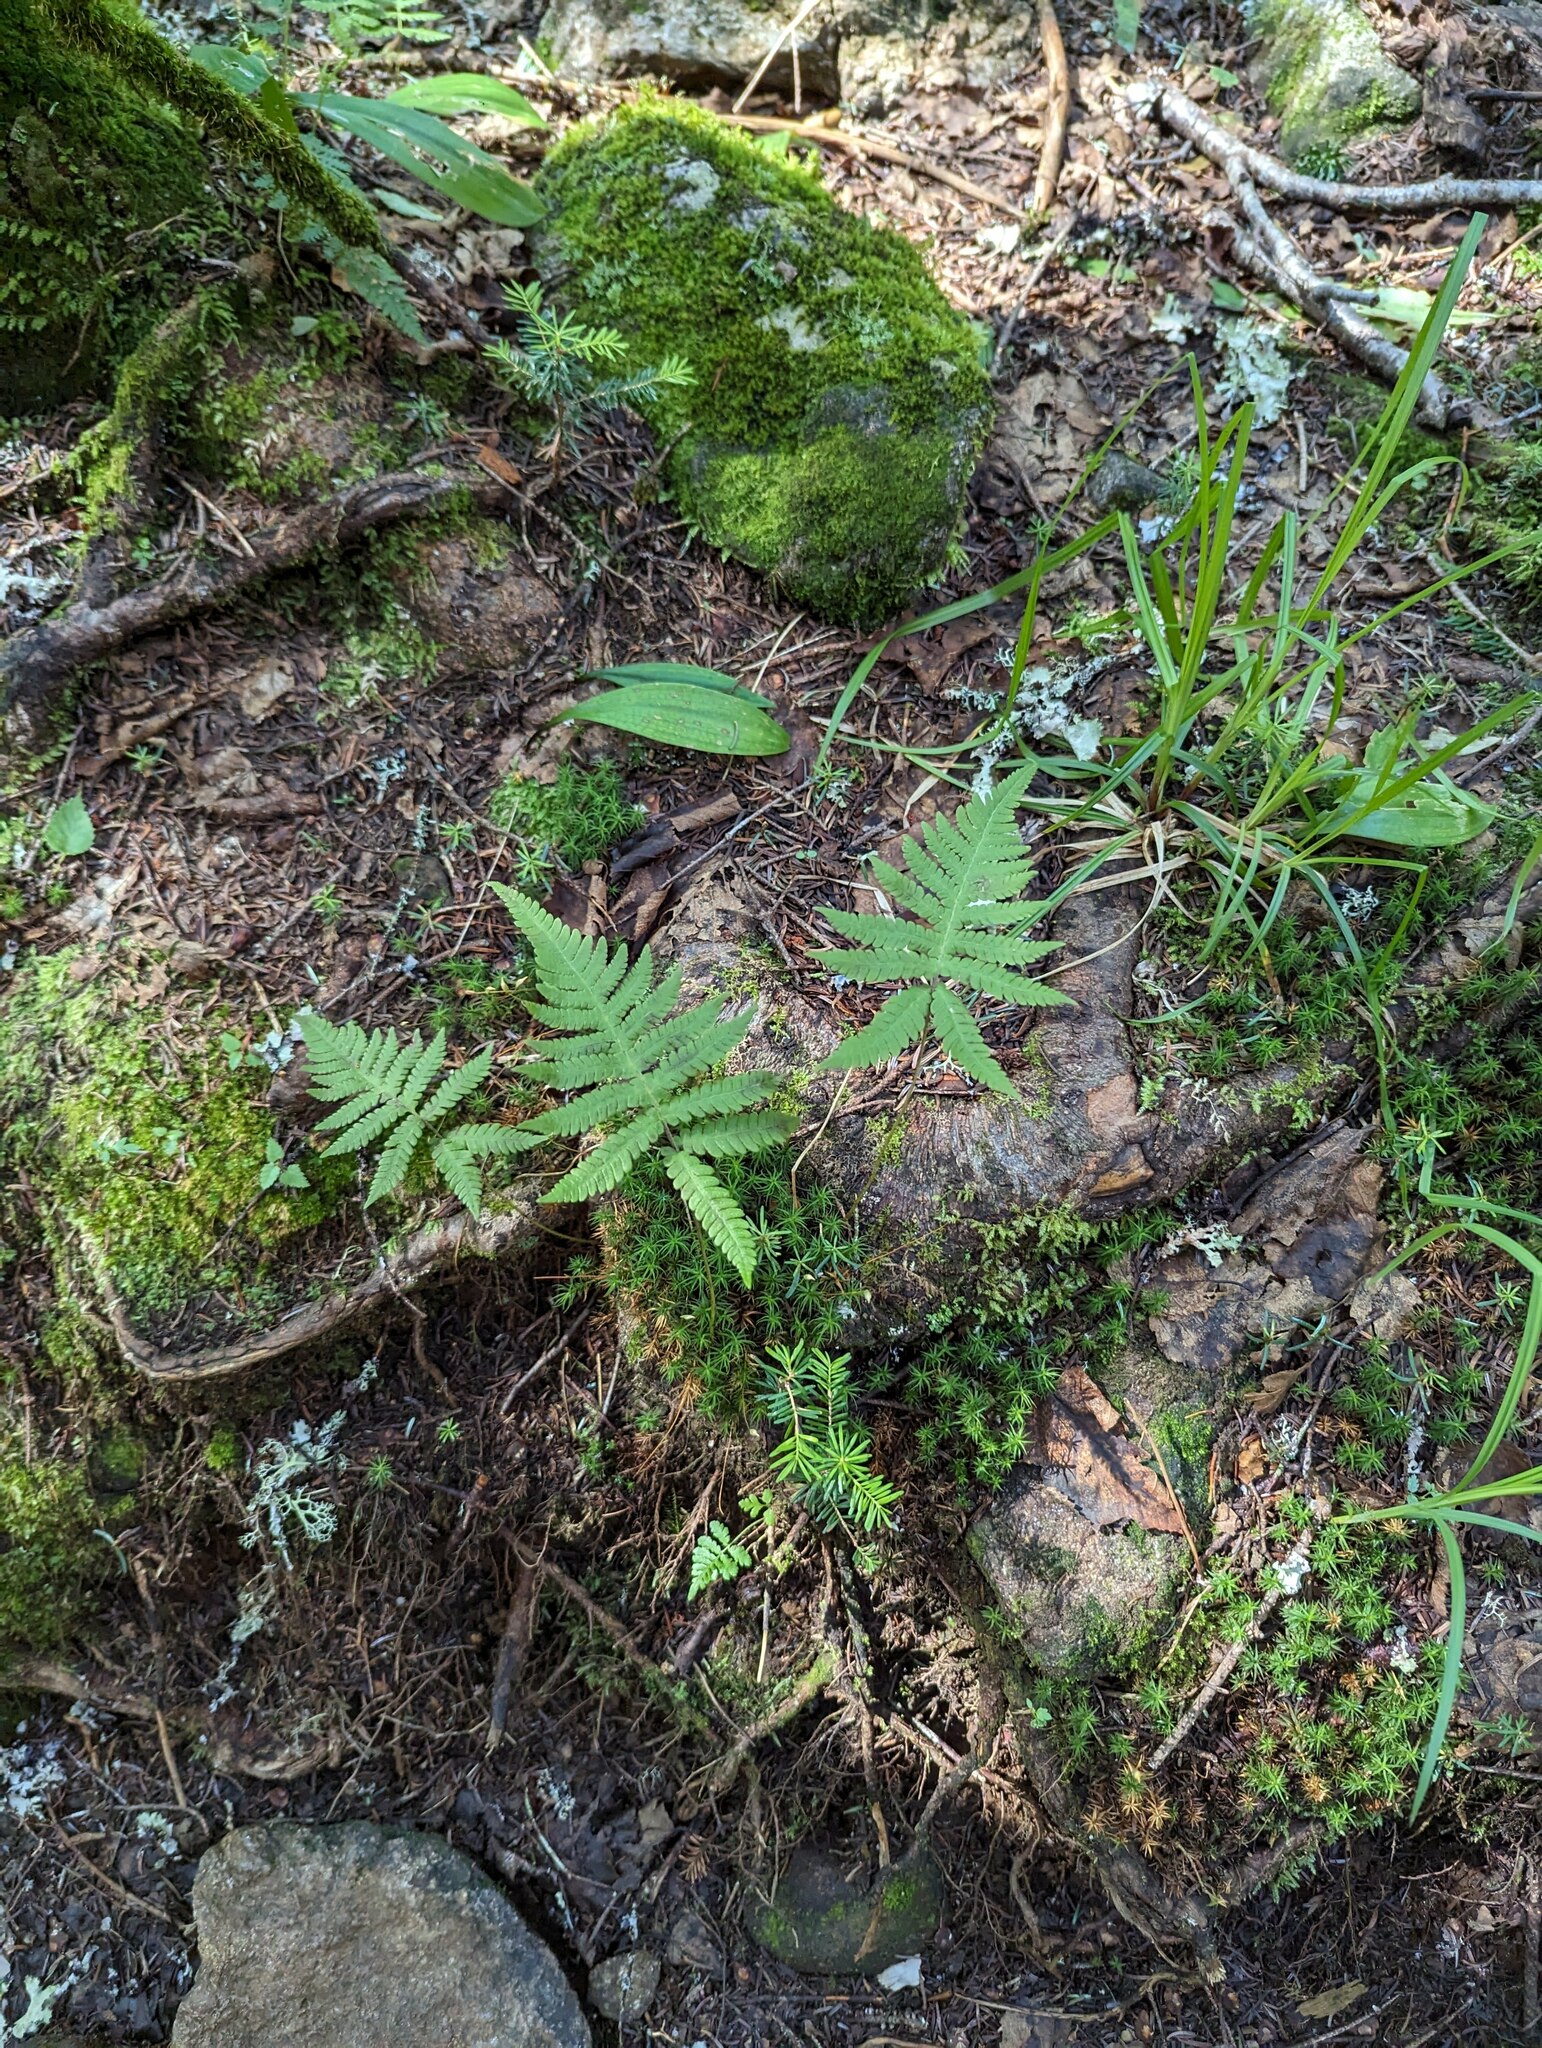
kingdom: Plantae
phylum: Tracheophyta
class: Polypodiopsida
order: Polypodiales
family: Thelypteridaceae
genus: Phegopteris
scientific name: Phegopteris connectilis
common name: Beech fern
